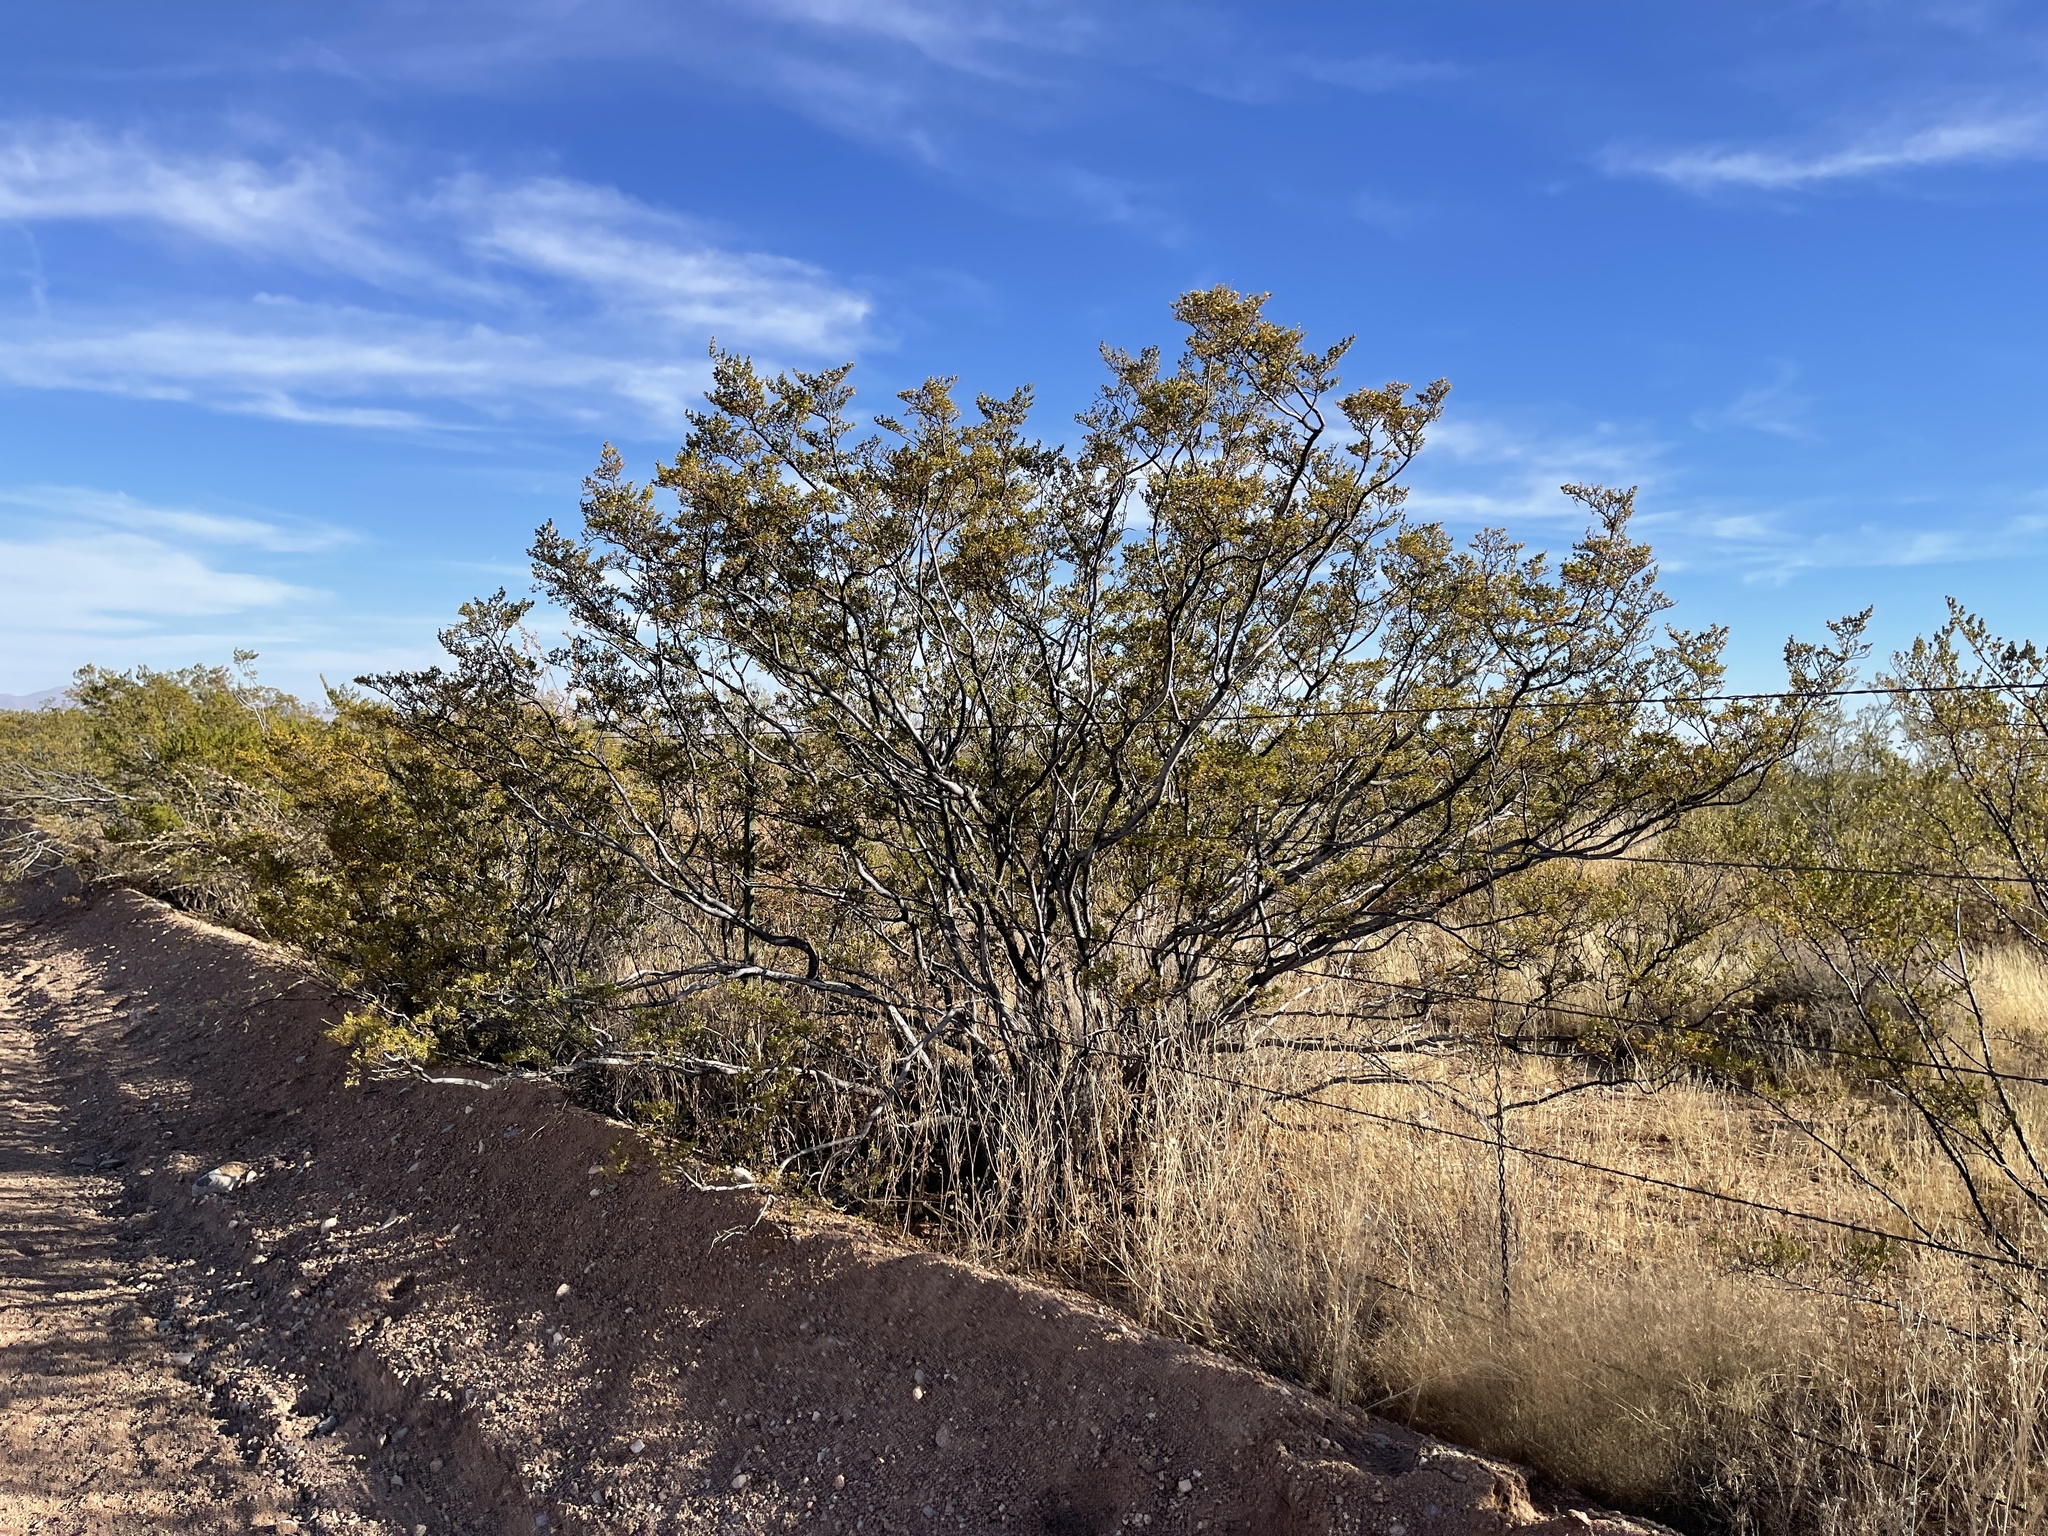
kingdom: Plantae
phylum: Tracheophyta
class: Magnoliopsida
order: Zygophyllales
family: Zygophyllaceae
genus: Larrea
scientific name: Larrea tridentata
